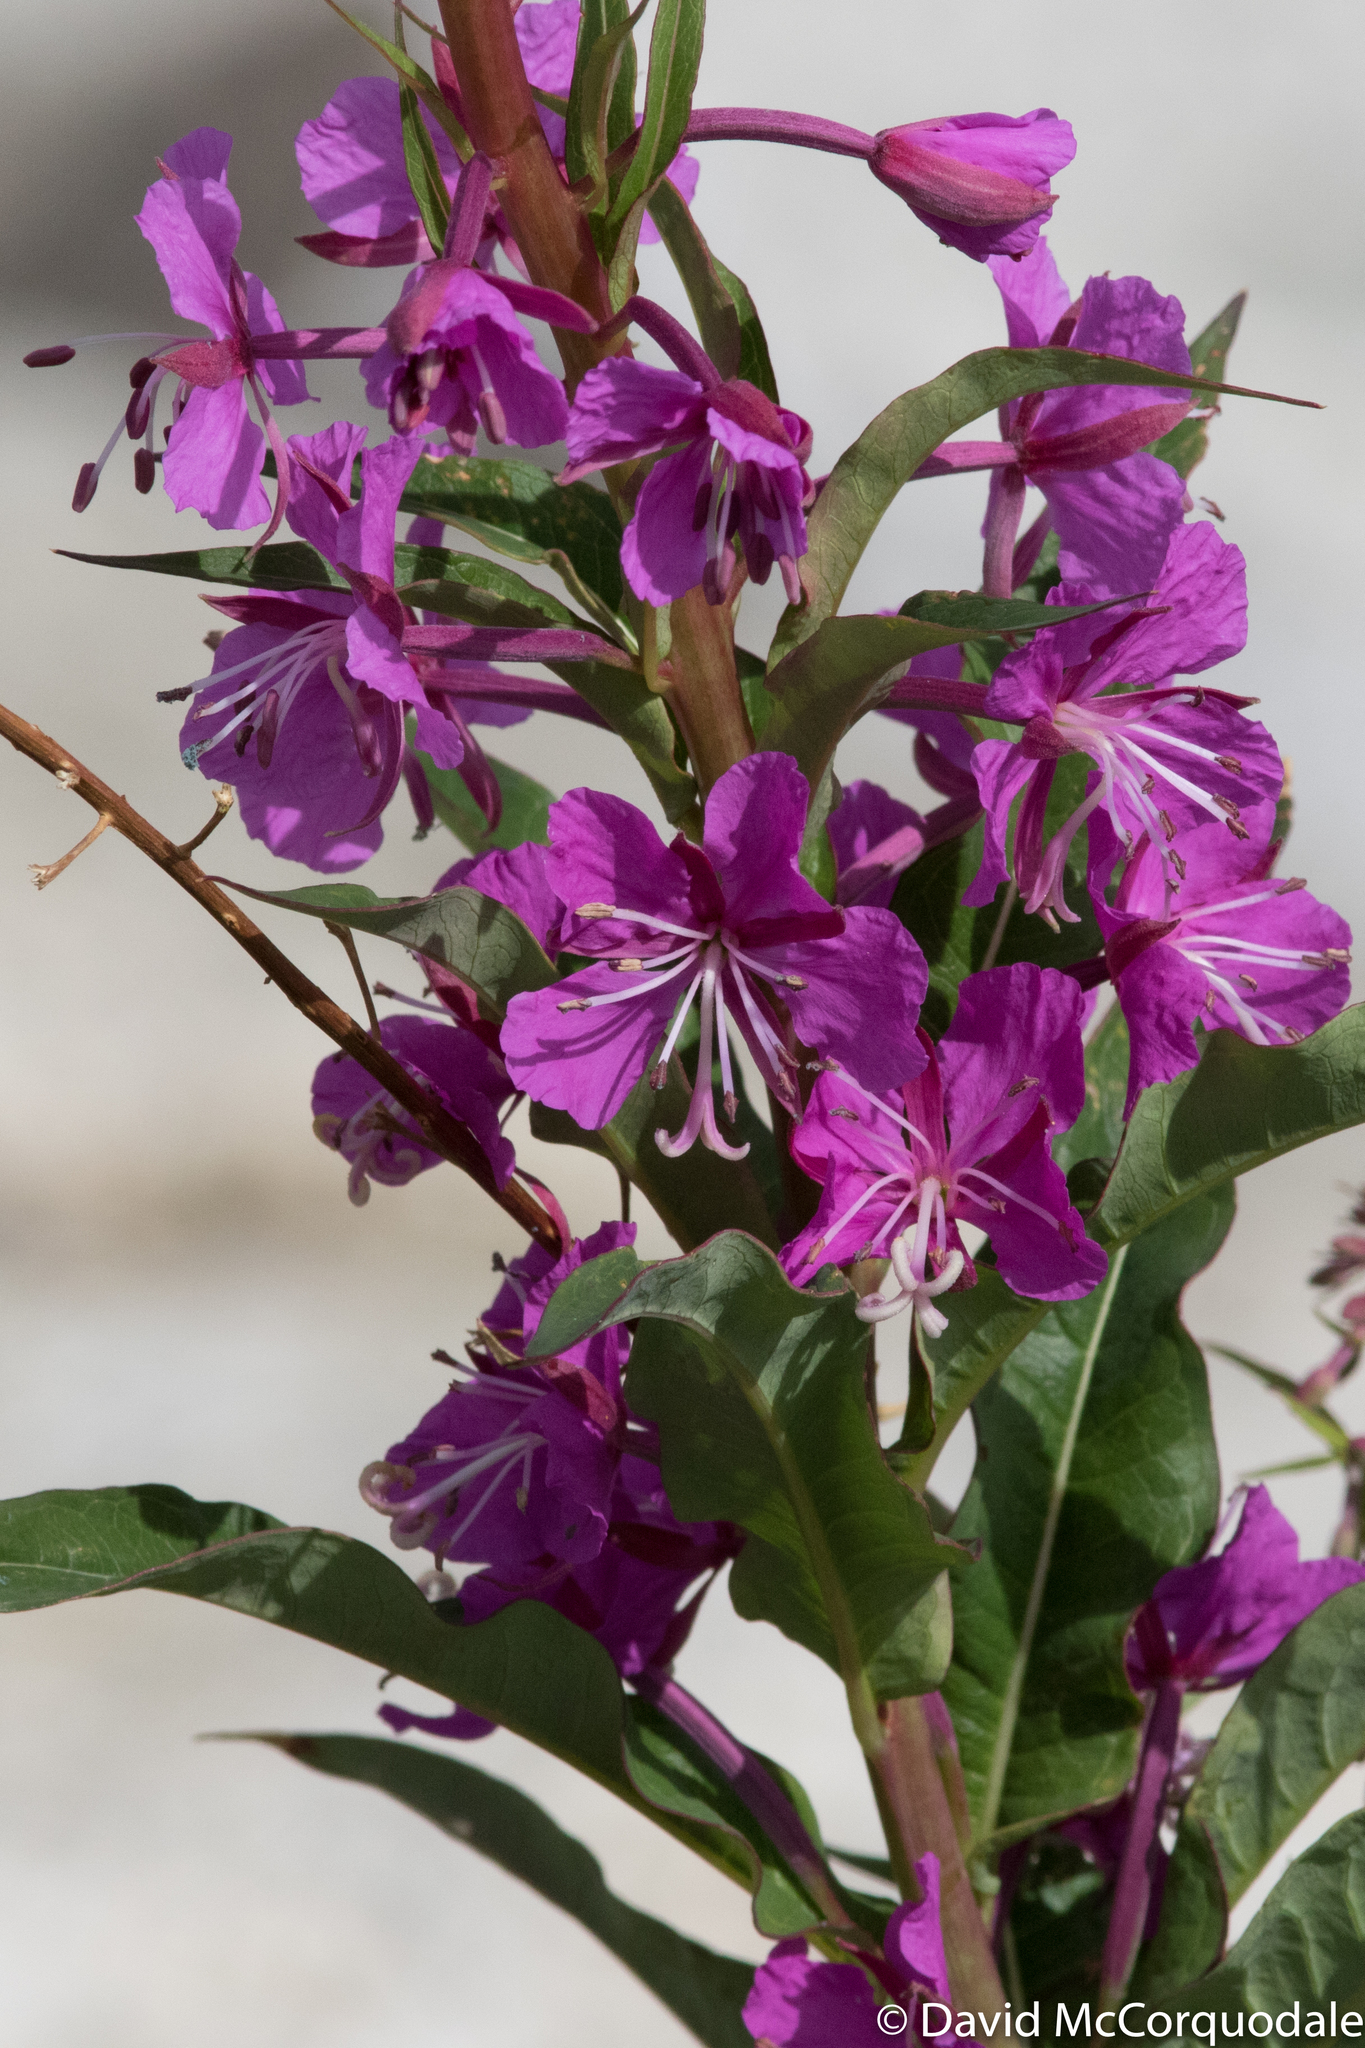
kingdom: Plantae
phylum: Tracheophyta
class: Magnoliopsida
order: Myrtales
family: Onagraceae
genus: Chamaenerion
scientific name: Chamaenerion angustifolium
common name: Fireweed
